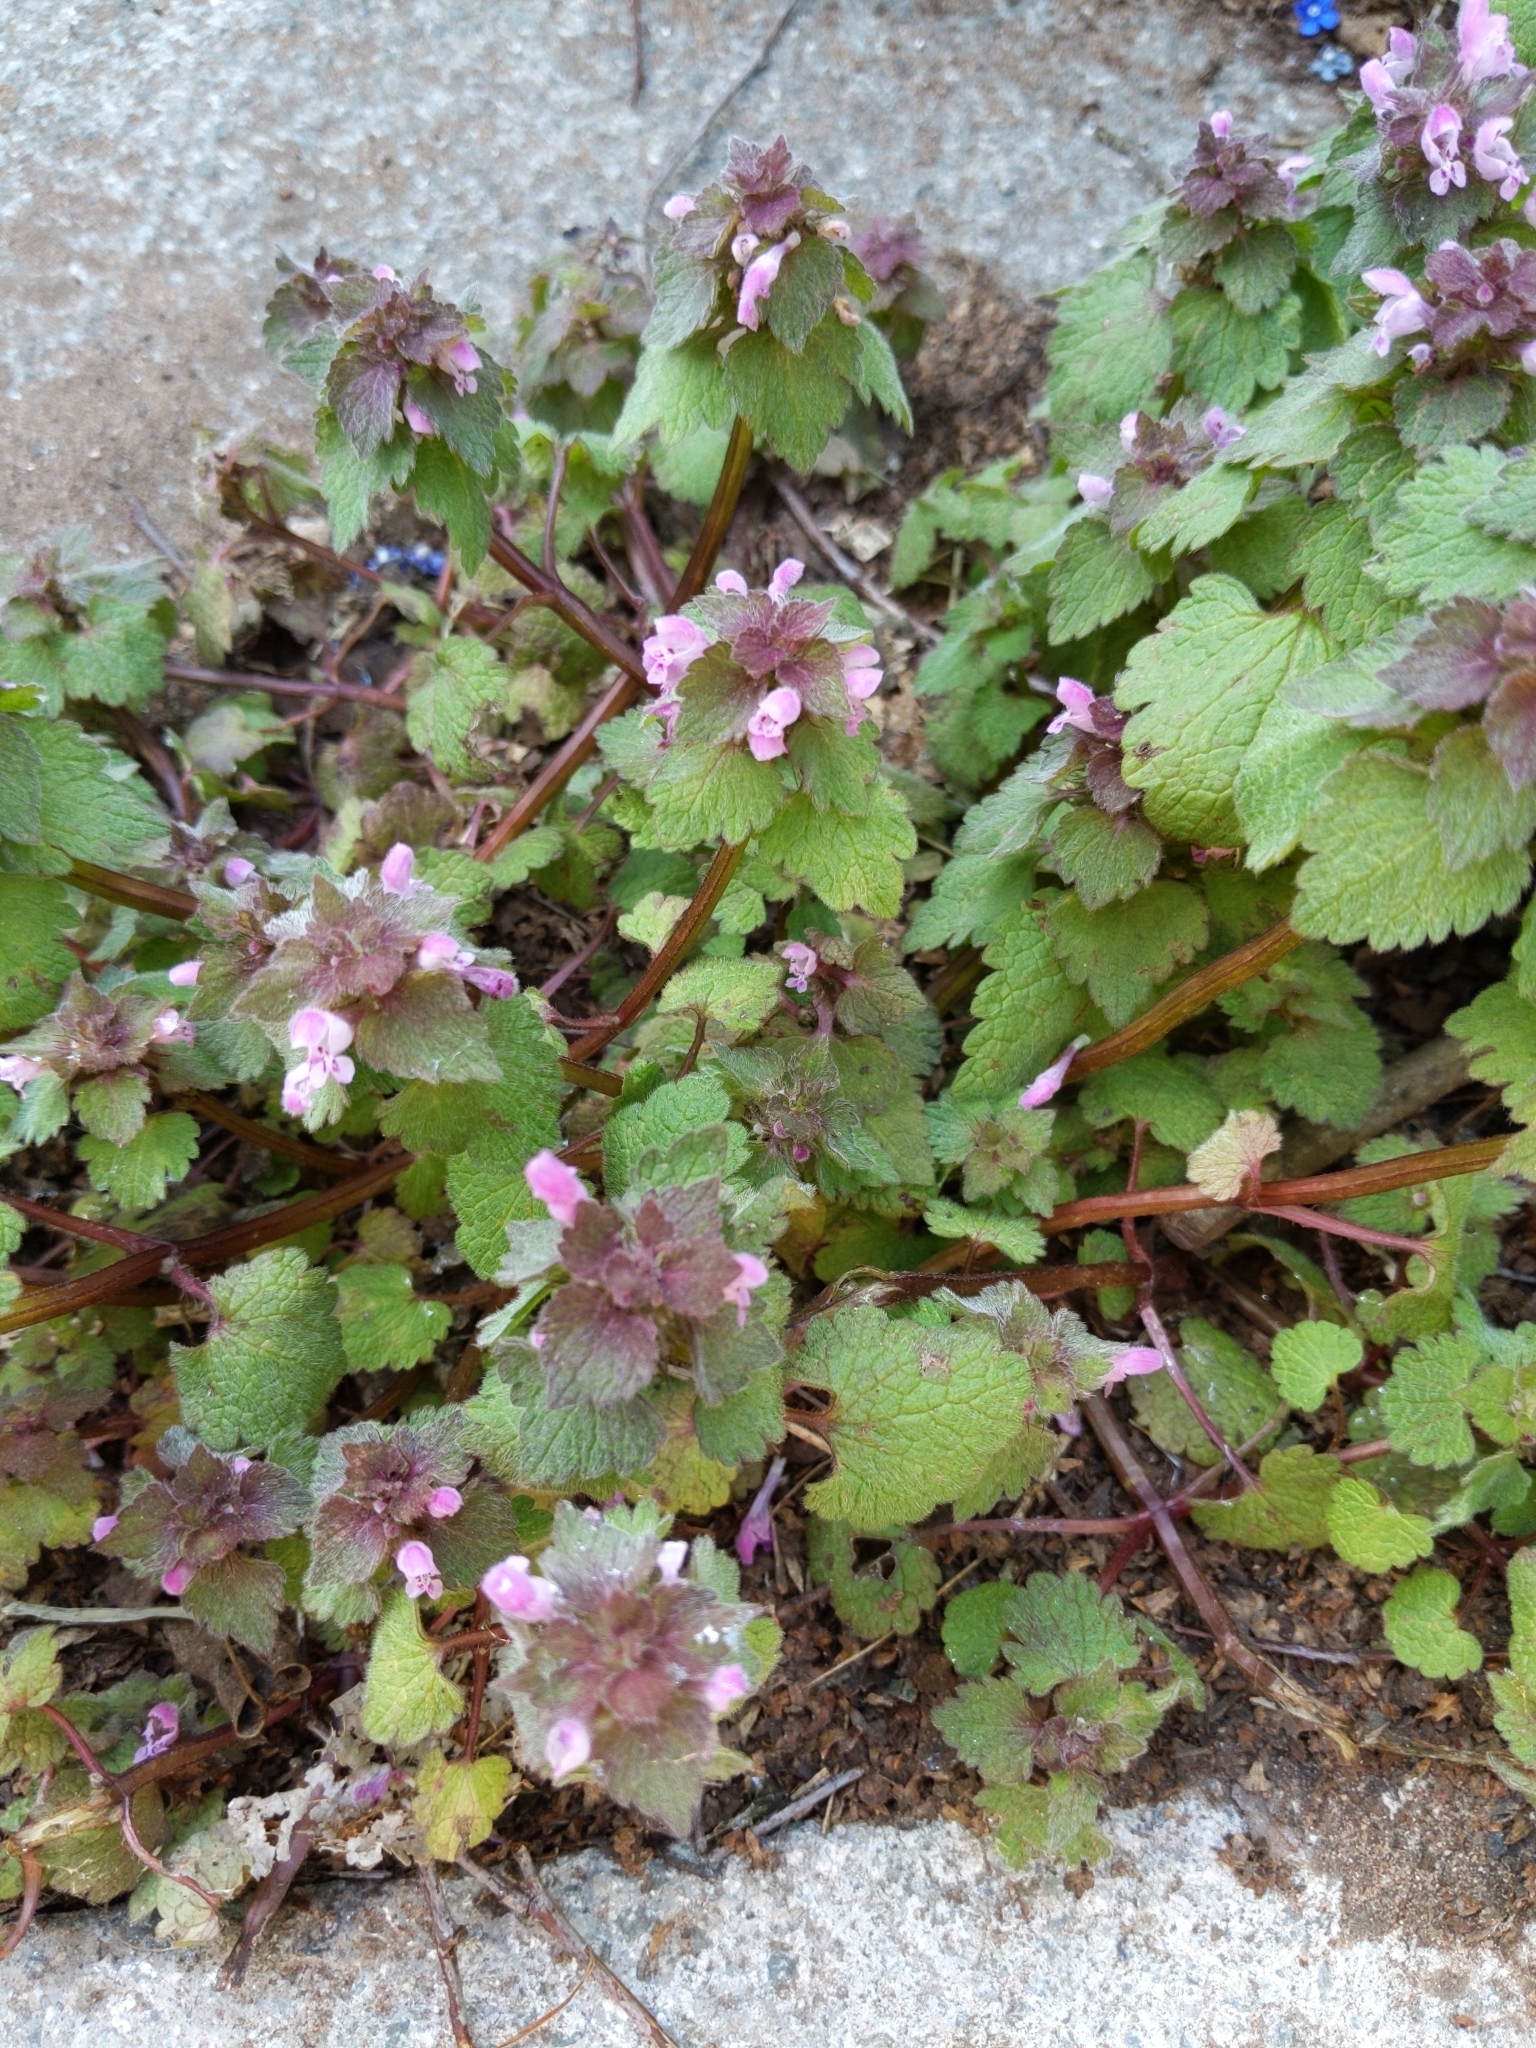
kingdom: Plantae
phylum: Tracheophyta
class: Magnoliopsida
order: Lamiales
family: Lamiaceae
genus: Lamium
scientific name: Lamium purpureum
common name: Red dead-nettle
